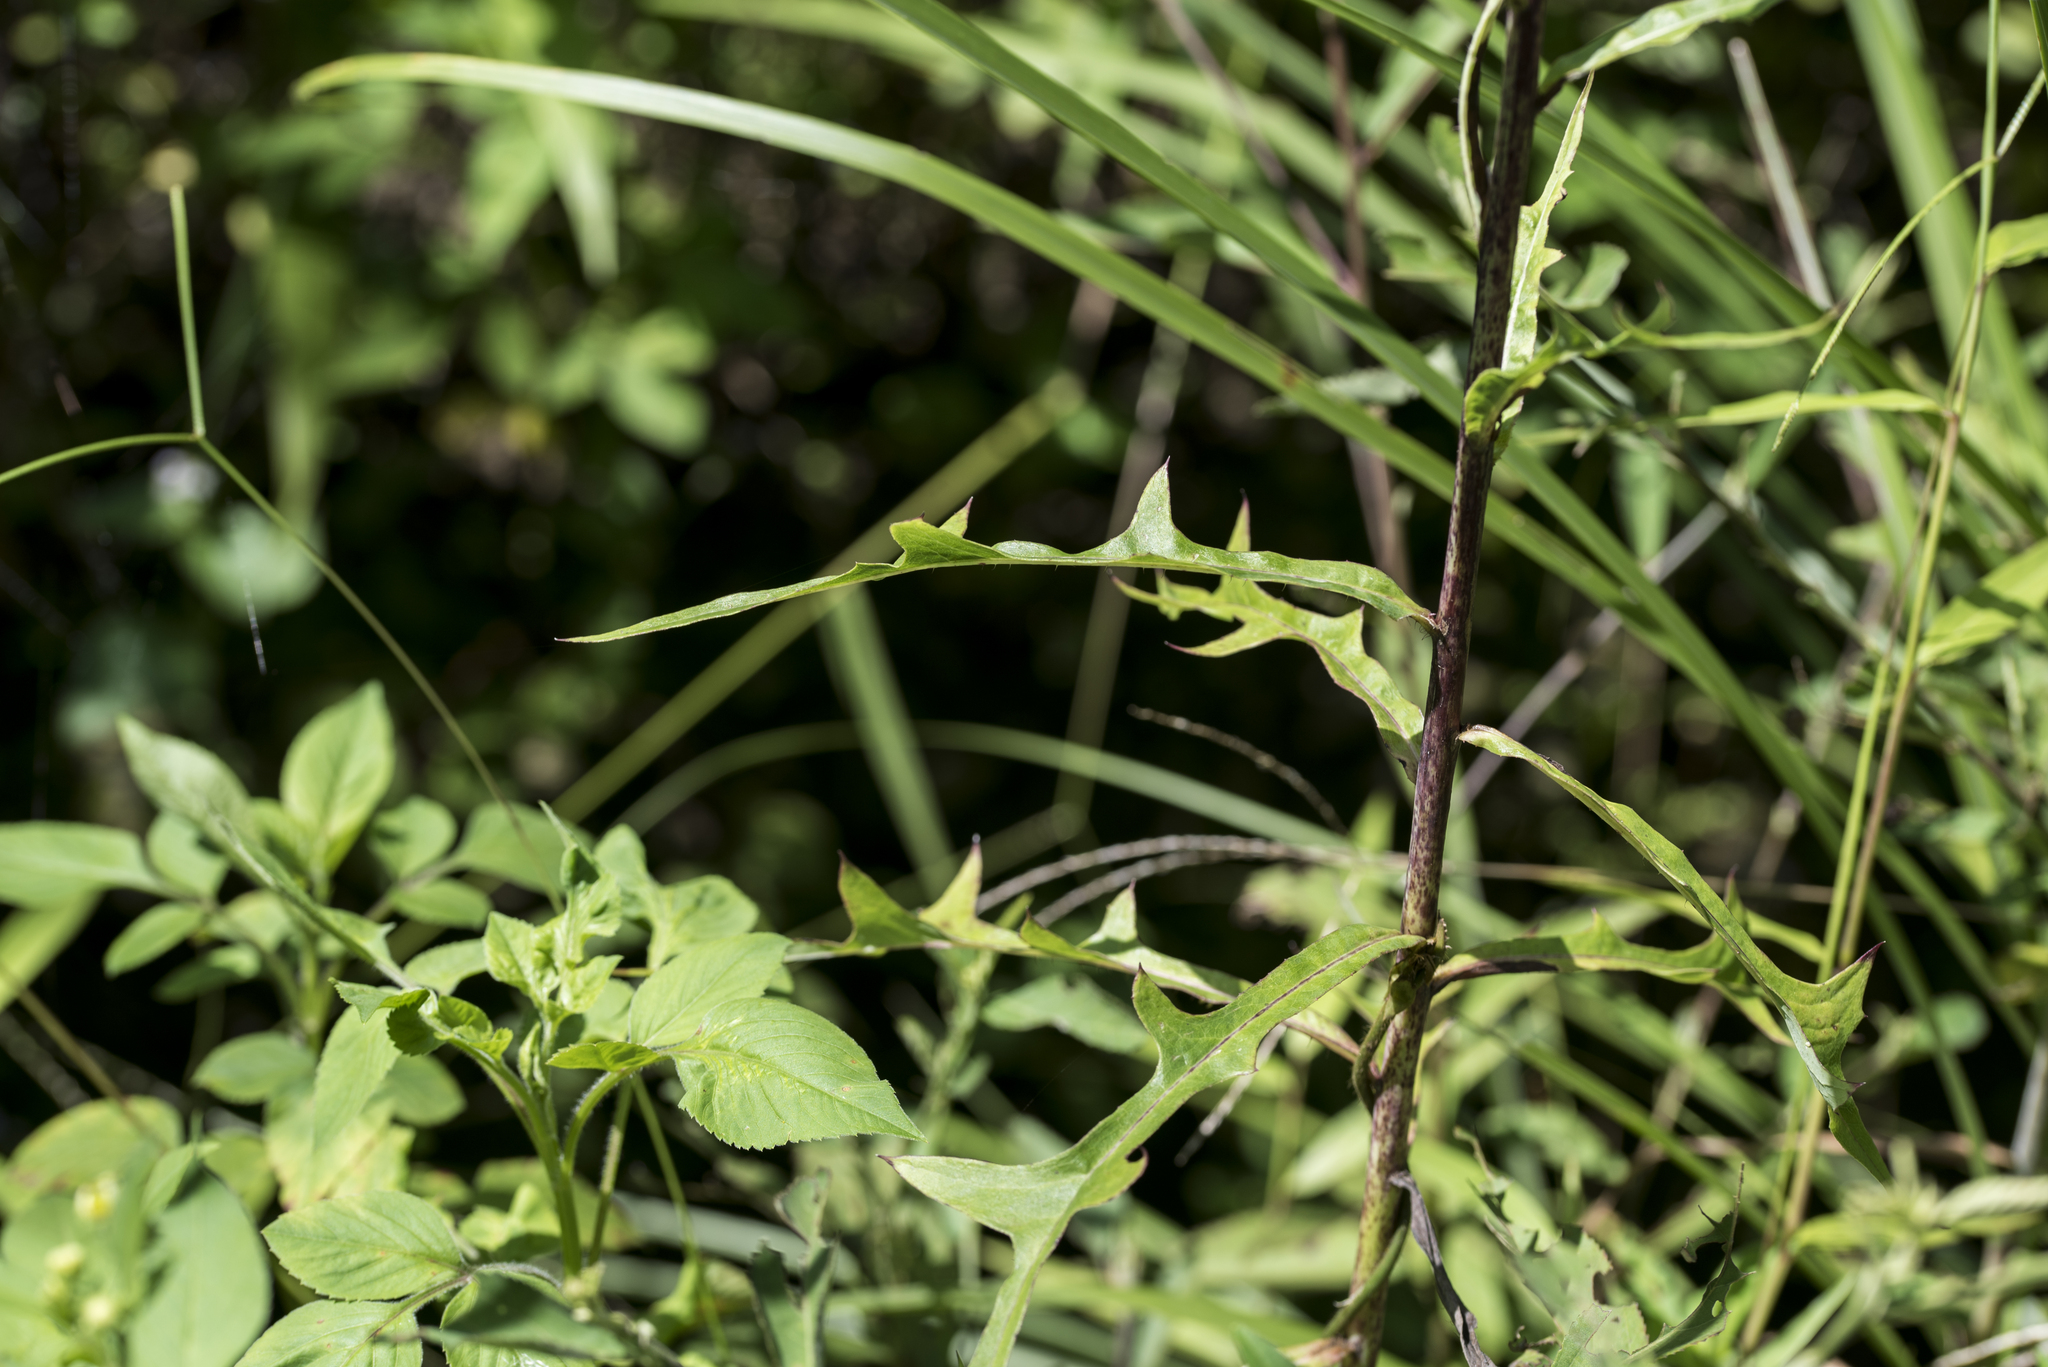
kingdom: Plantae
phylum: Tracheophyta
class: Magnoliopsida
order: Asterales
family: Asteraceae
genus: Lactuca
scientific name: Lactuca indica
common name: Wild lettuce
